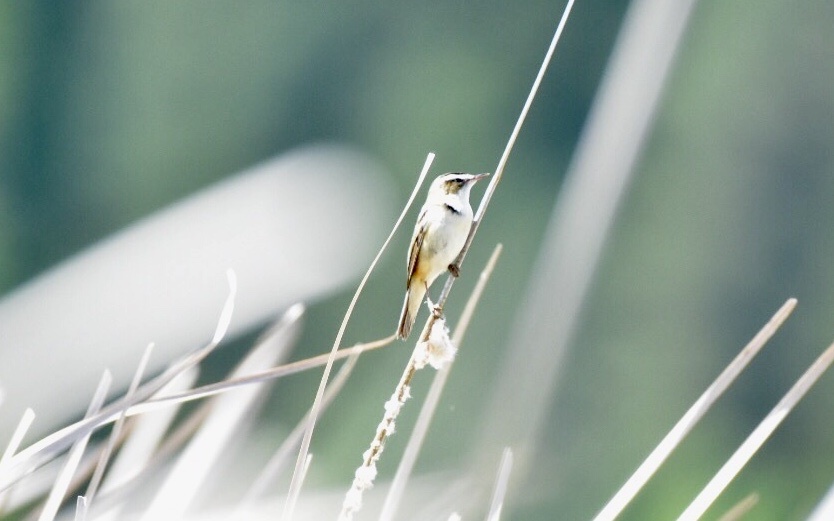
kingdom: Animalia
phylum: Chordata
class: Aves
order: Passeriformes
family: Acrocephalidae
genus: Acrocephalus
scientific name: Acrocephalus schoenobaenus
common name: Sedge warbler
